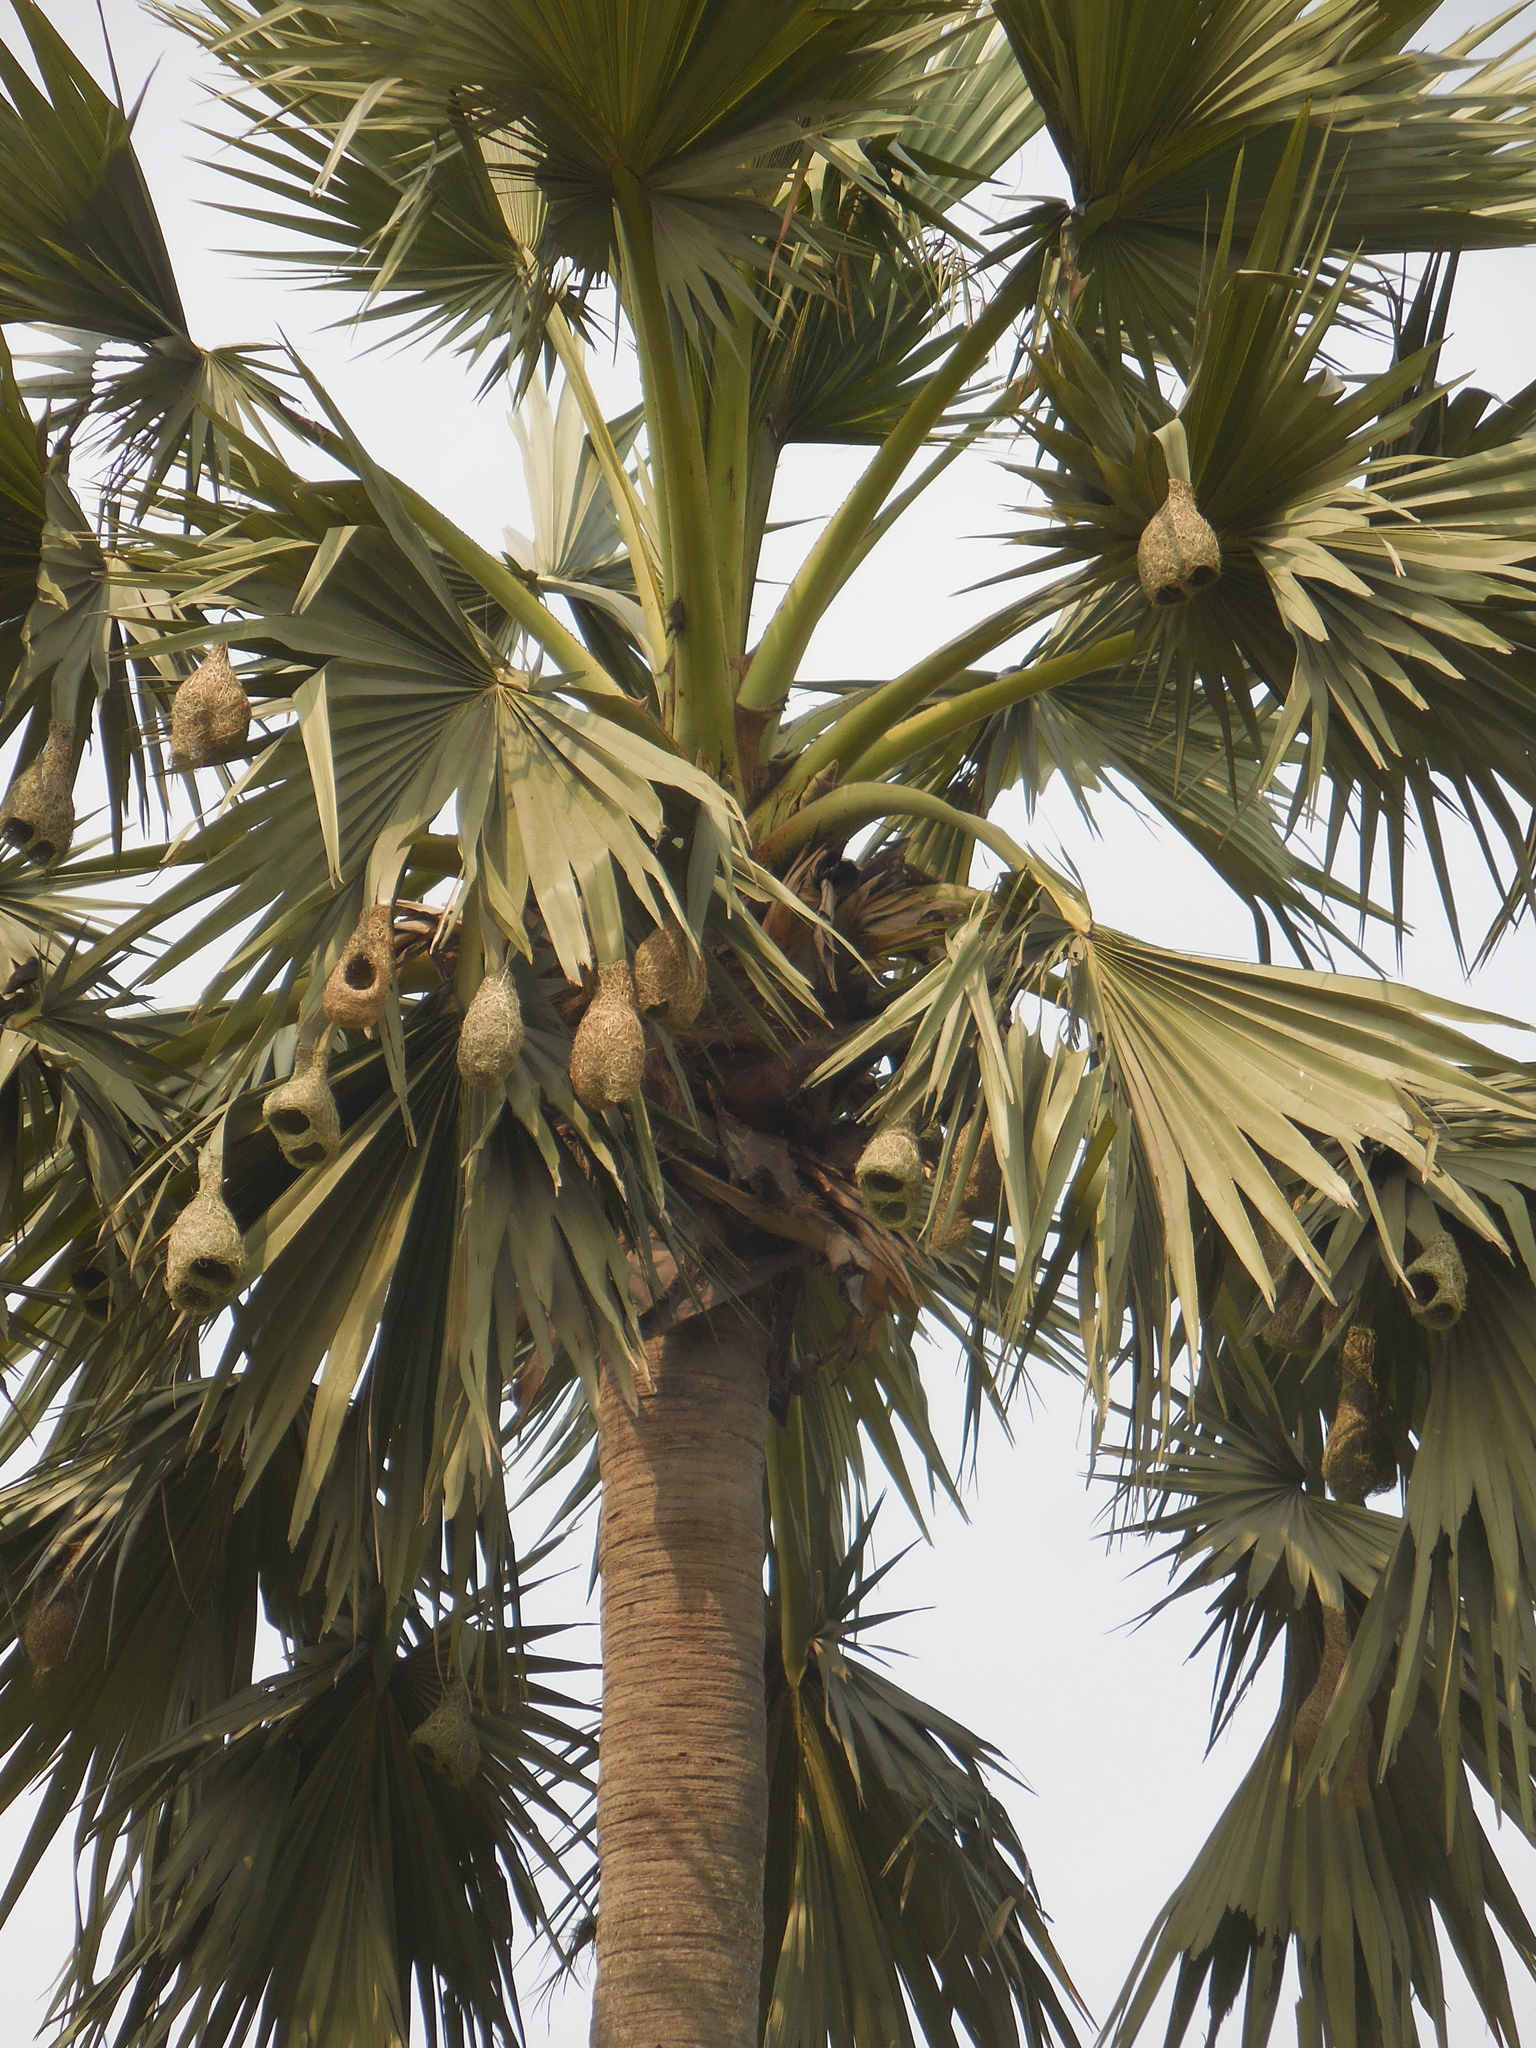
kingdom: Animalia
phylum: Chordata
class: Aves
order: Passeriformes
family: Ploceidae
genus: Ploceus
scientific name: Ploceus philippinus
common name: Baya weaver
